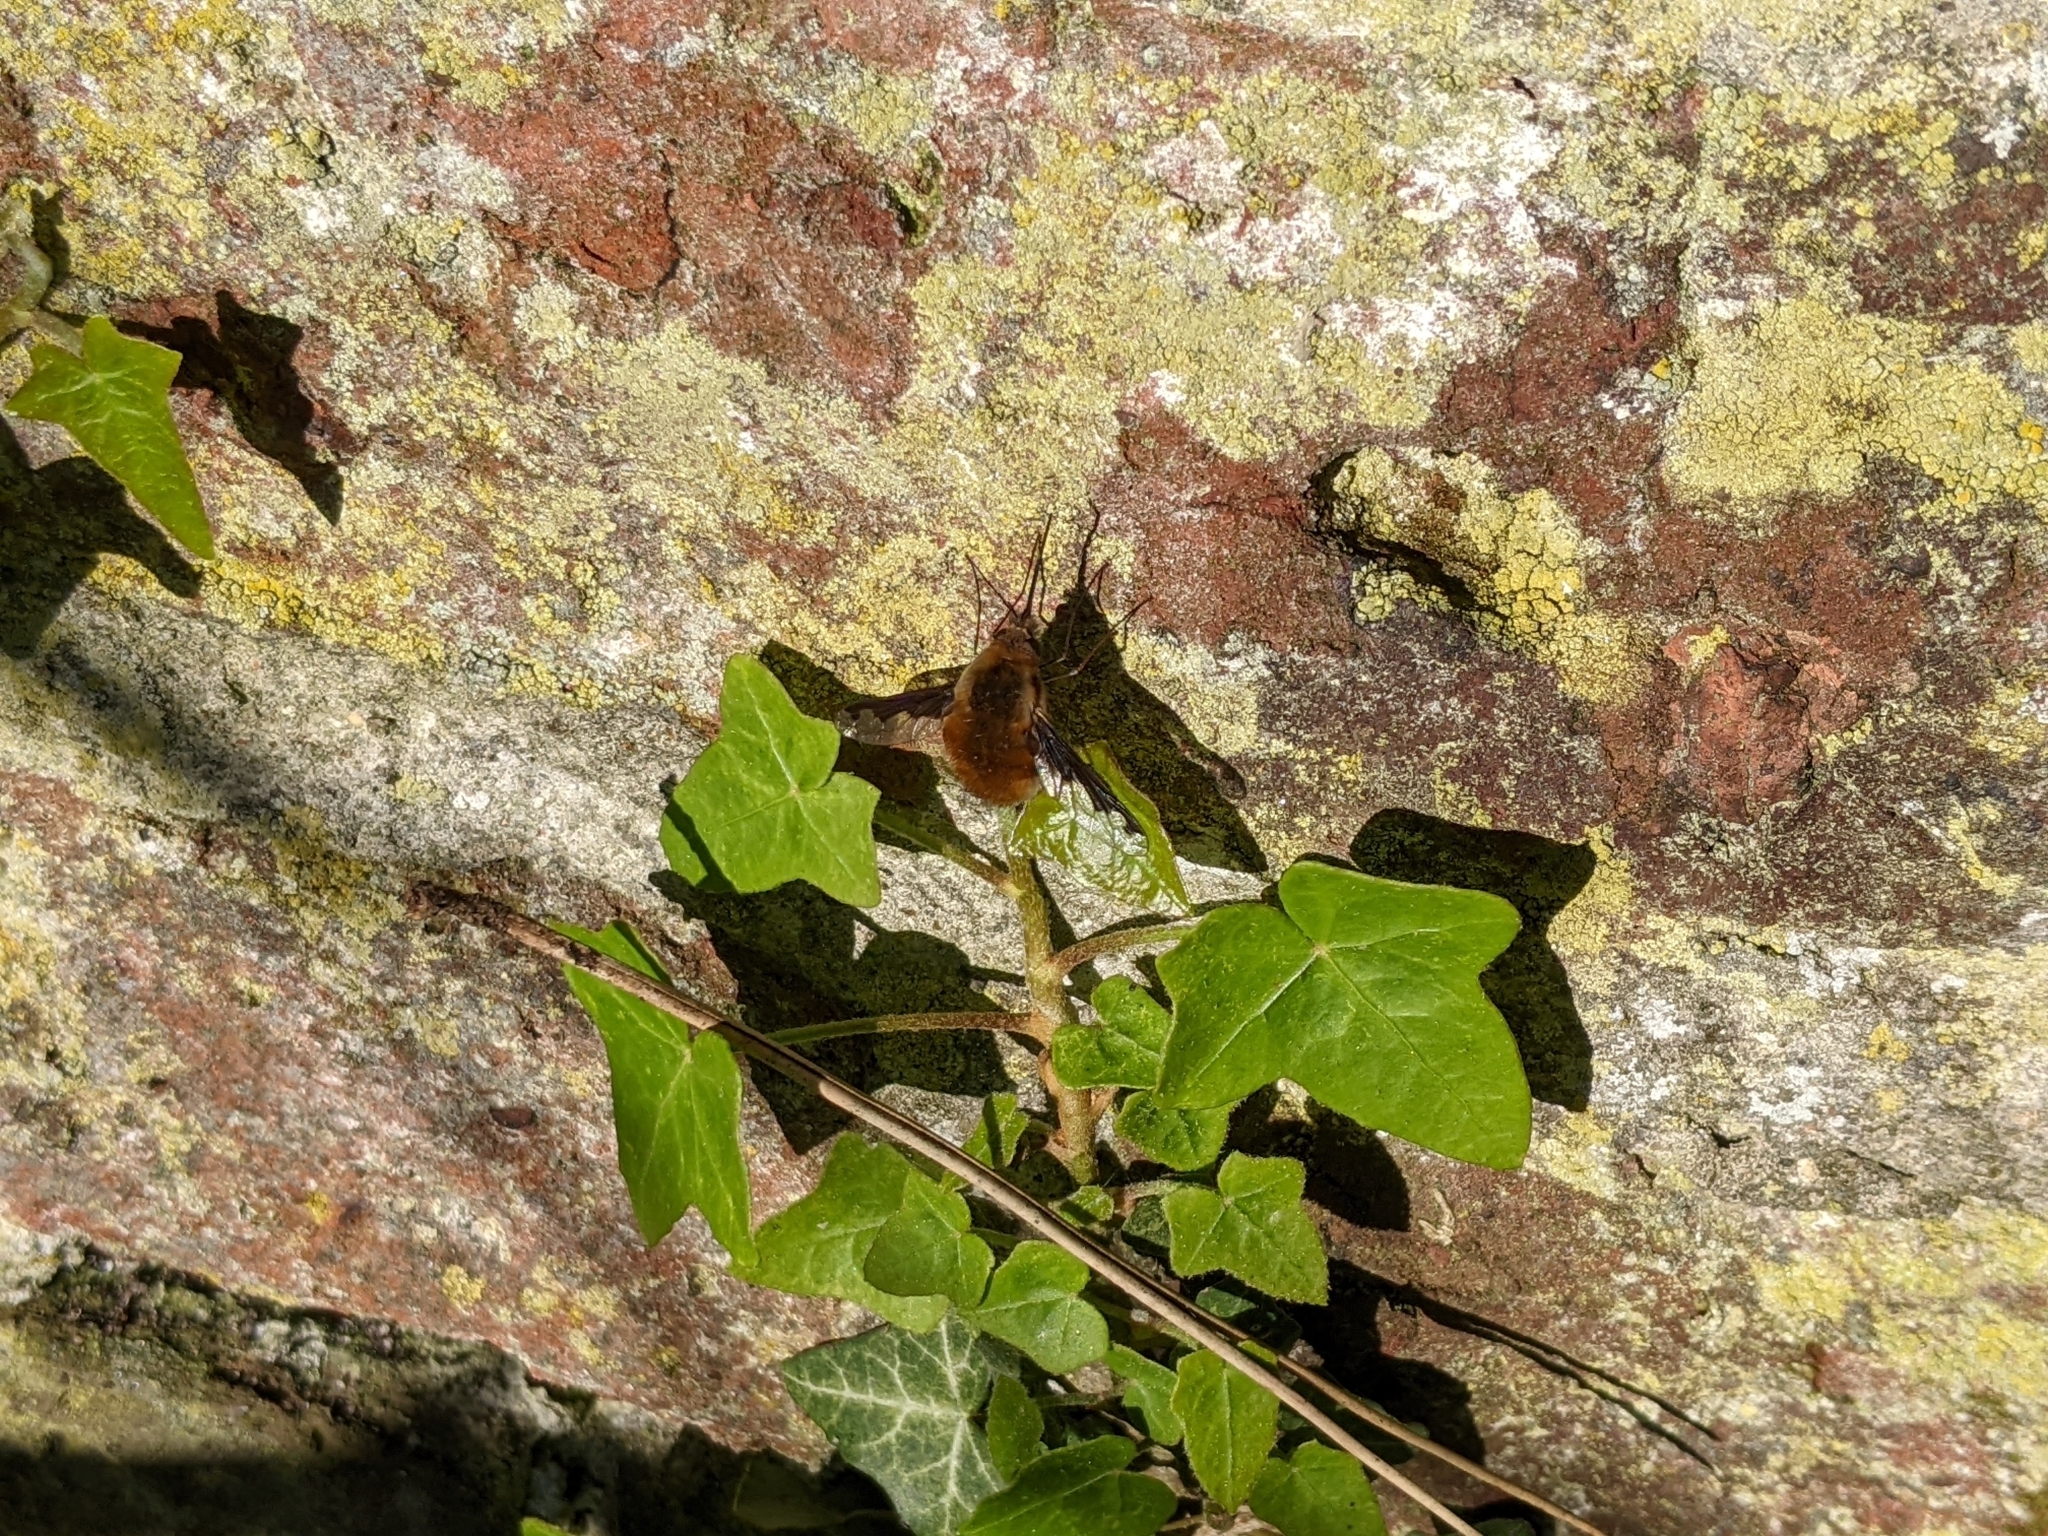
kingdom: Animalia
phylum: Arthropoda
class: Insecta
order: Diptera
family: Bombyliidae
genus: Bombylius
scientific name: Bombylius major
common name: Bee fly
